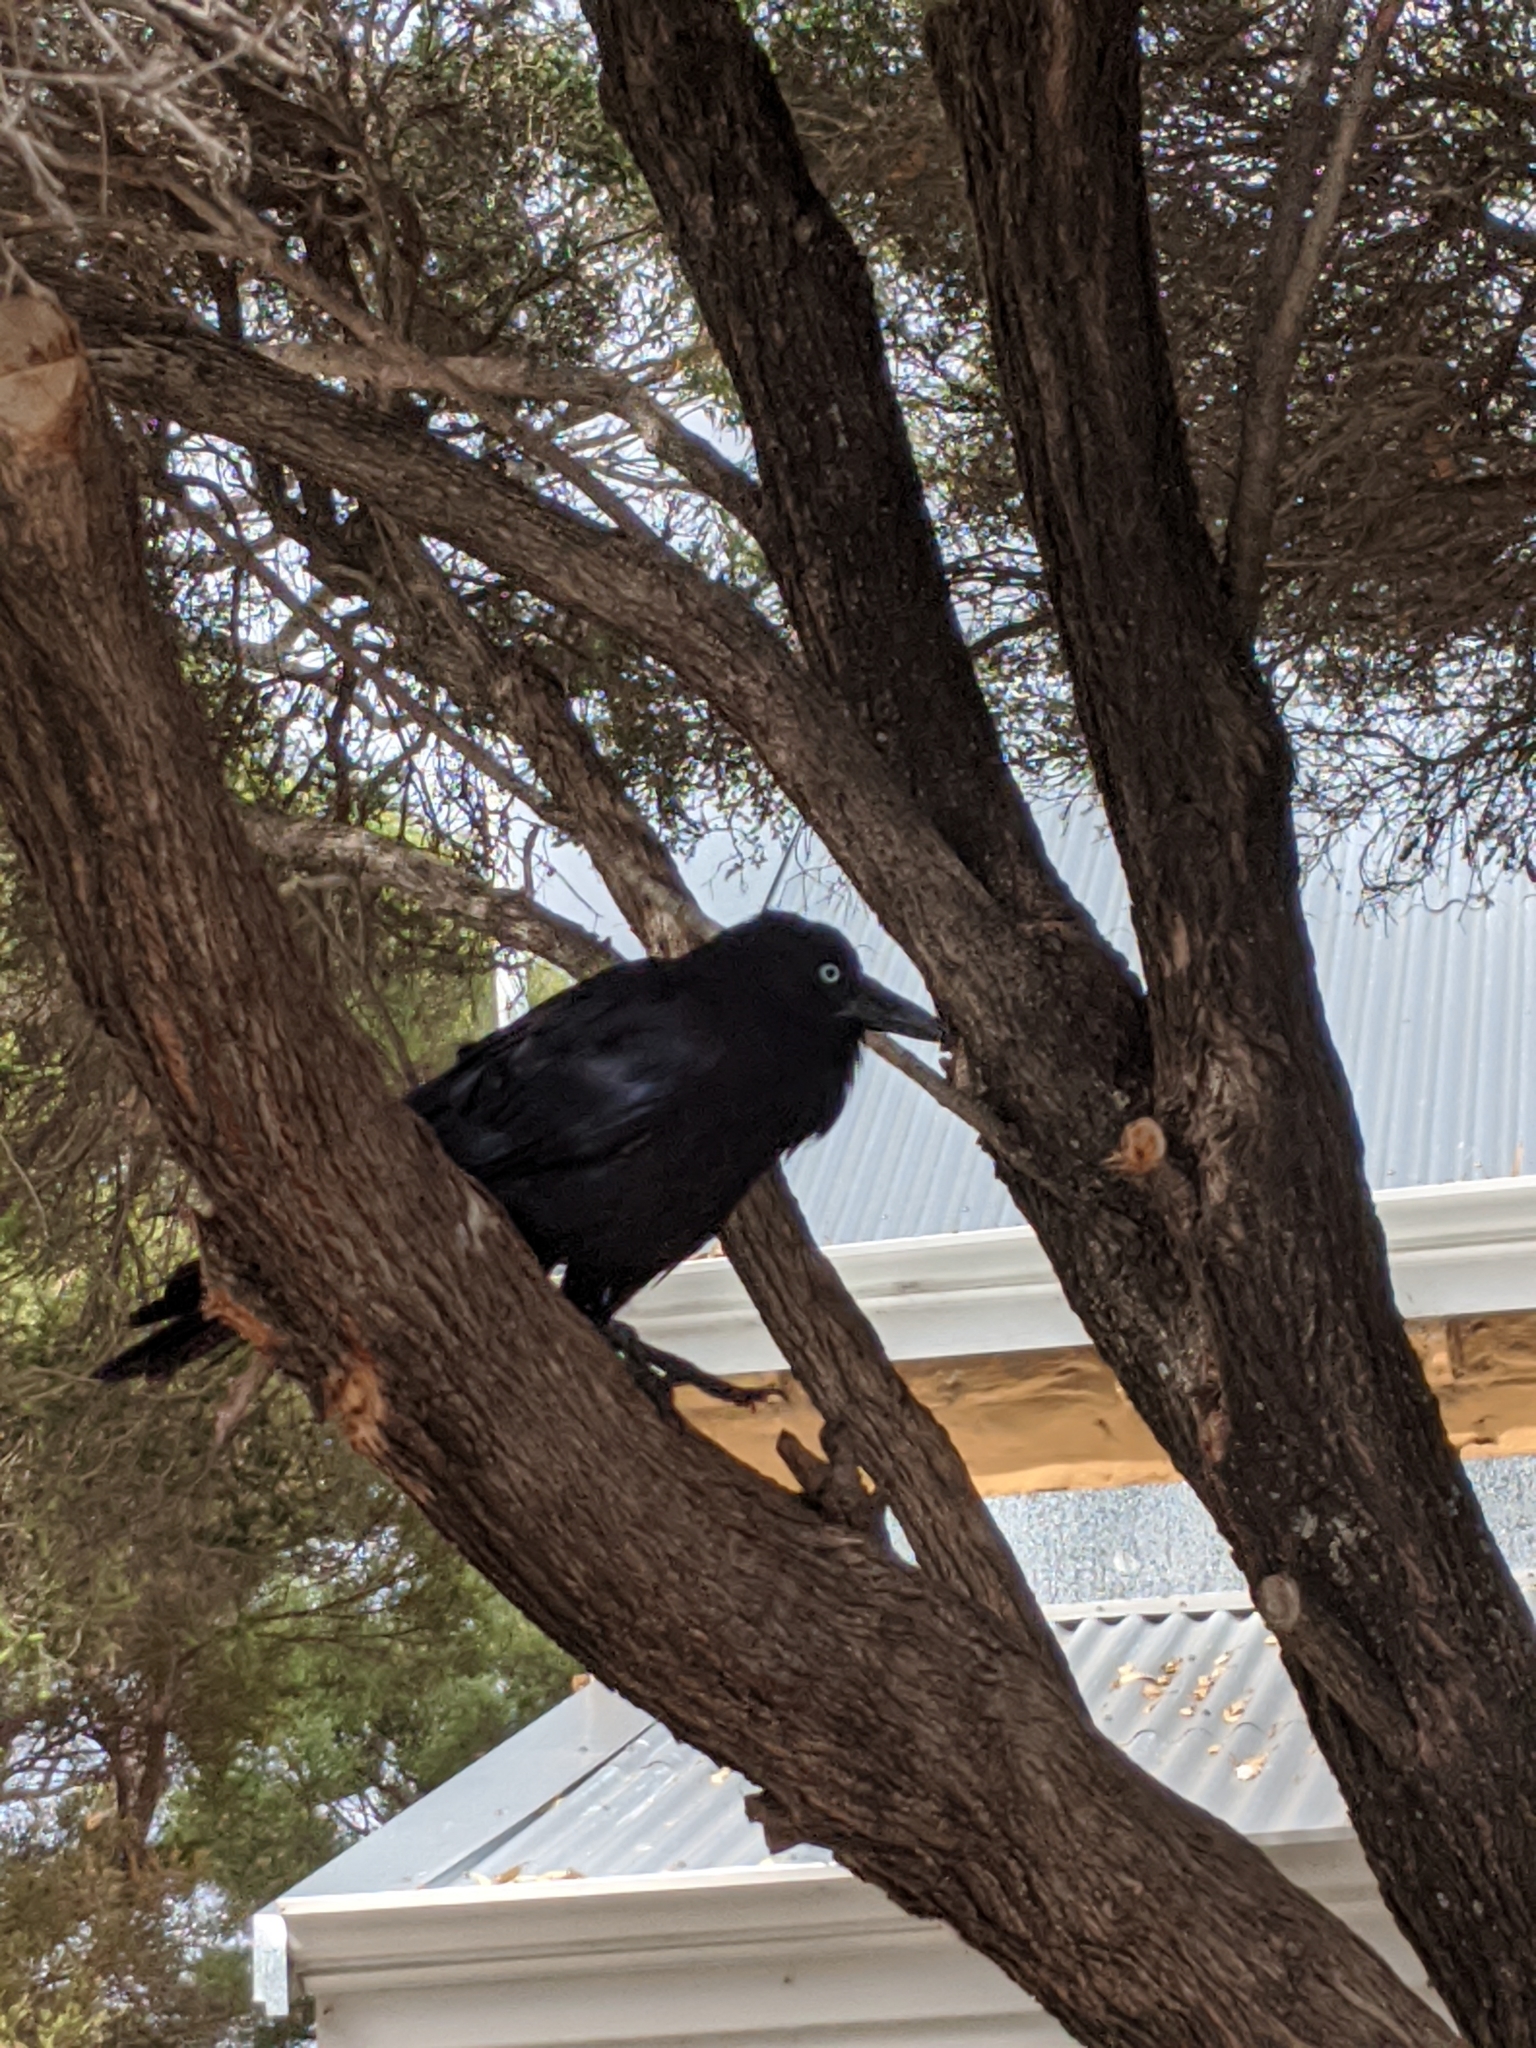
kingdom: Animalia
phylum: Chordata
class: Aves
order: Passeriformes
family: Corvidae
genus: Corvus
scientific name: Corvus coronoides
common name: Australian raven
